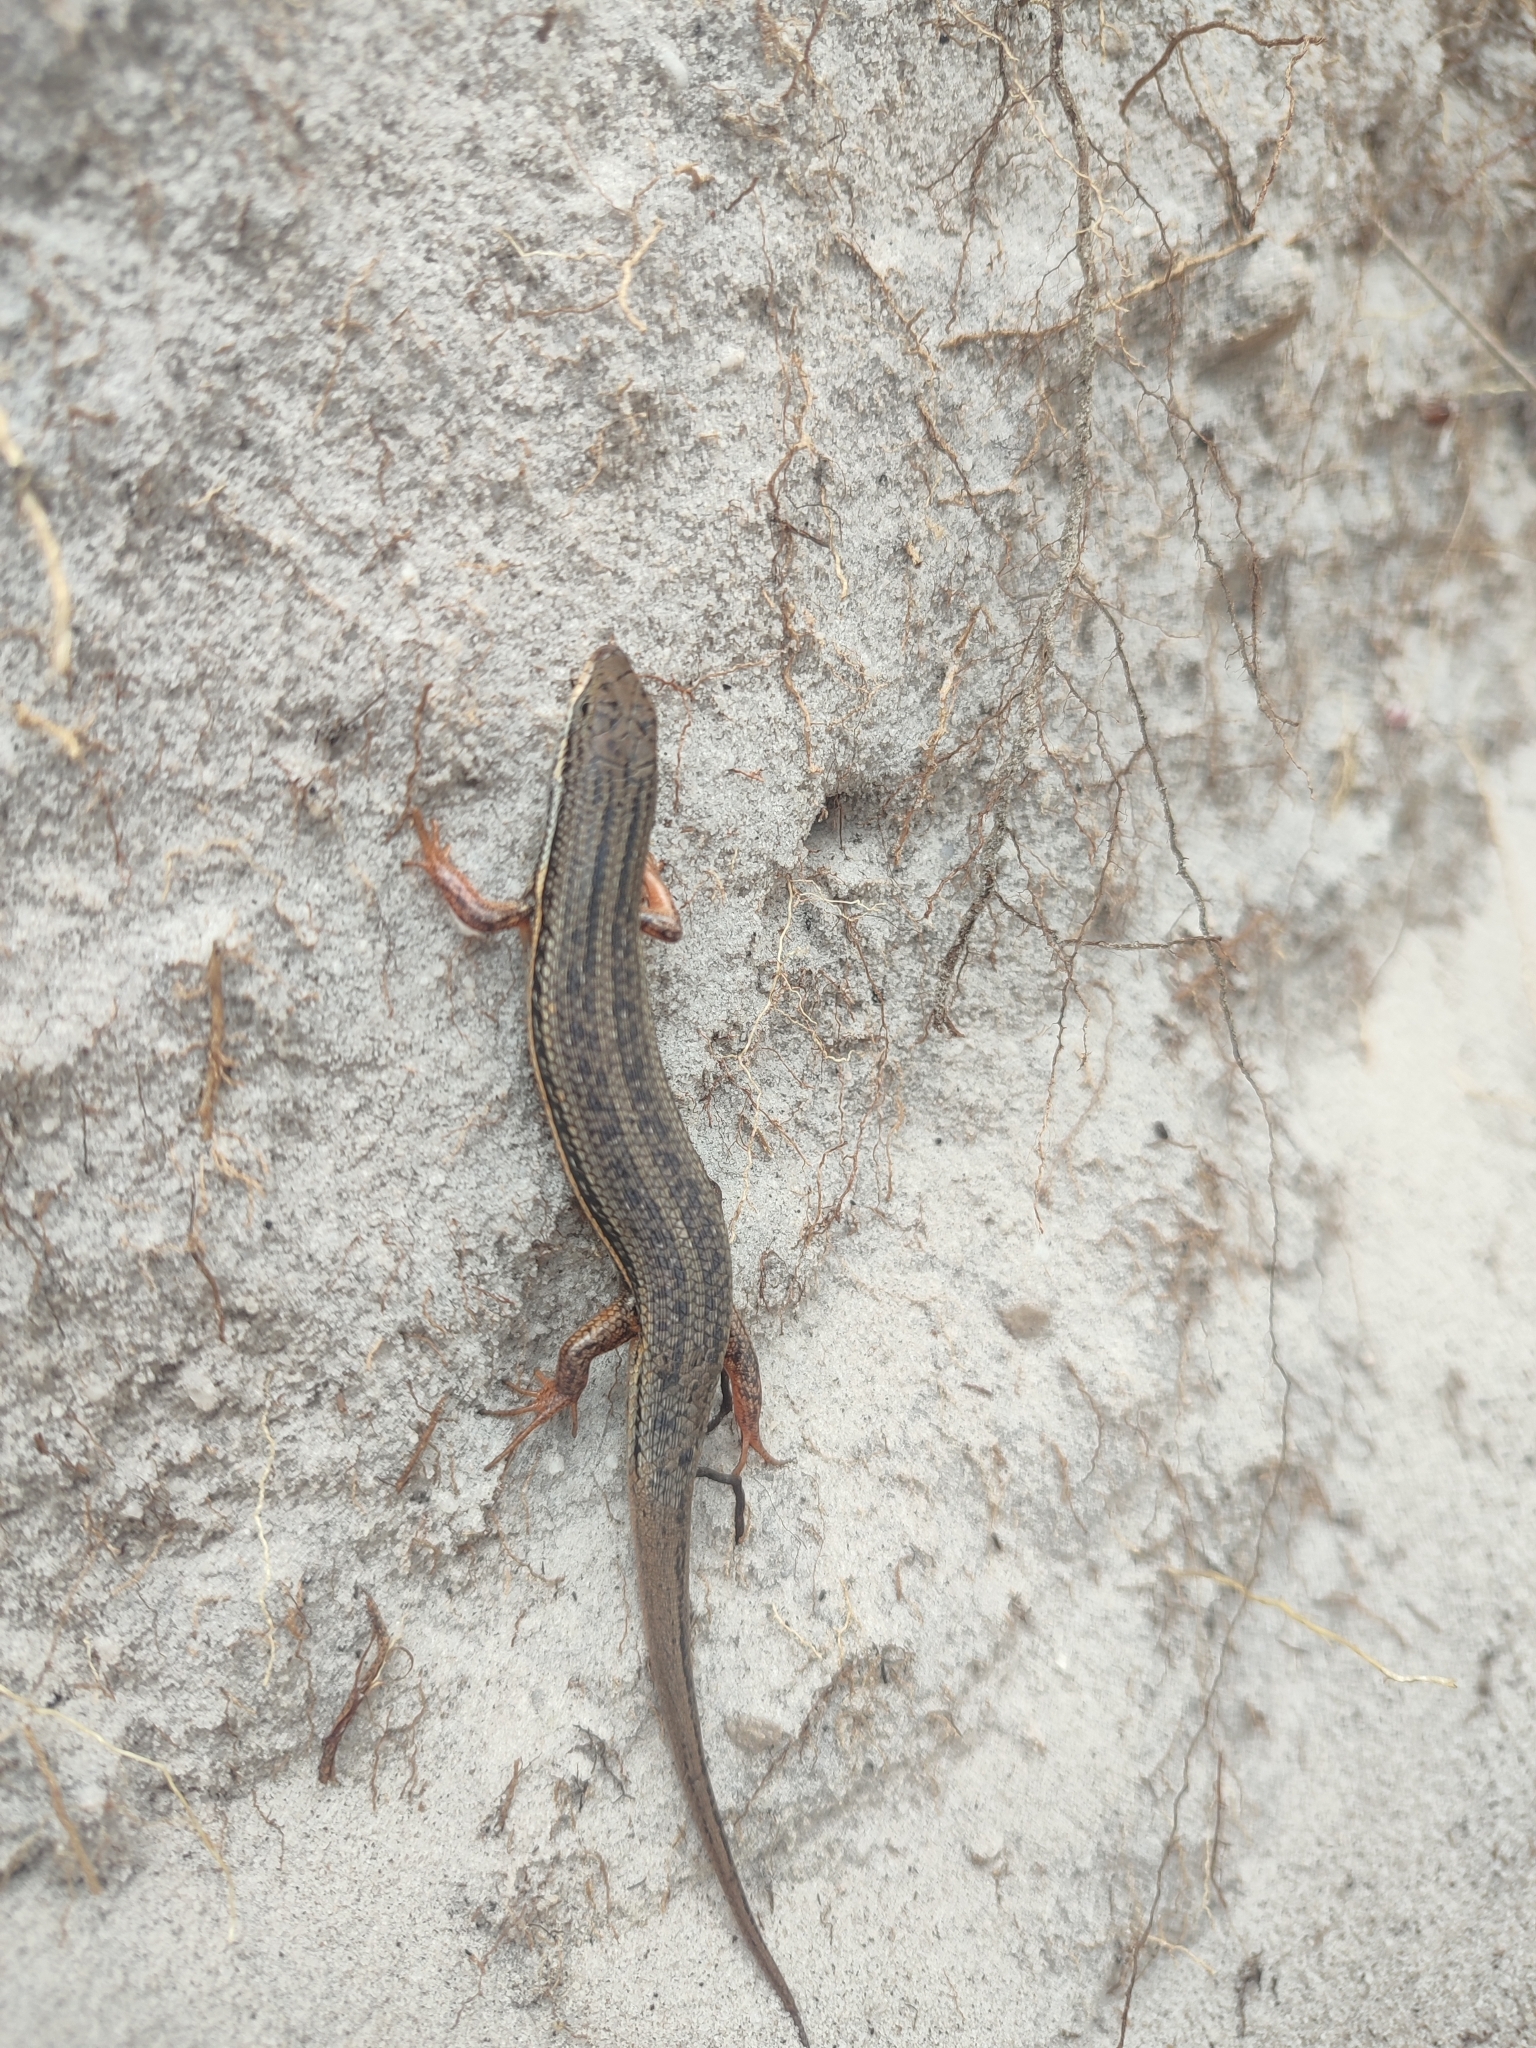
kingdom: Animalia
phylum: Chordata
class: Squamata
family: Scincidae
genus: Trachylepis
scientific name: Trachylepis homalocephala
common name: Red-sided skink
